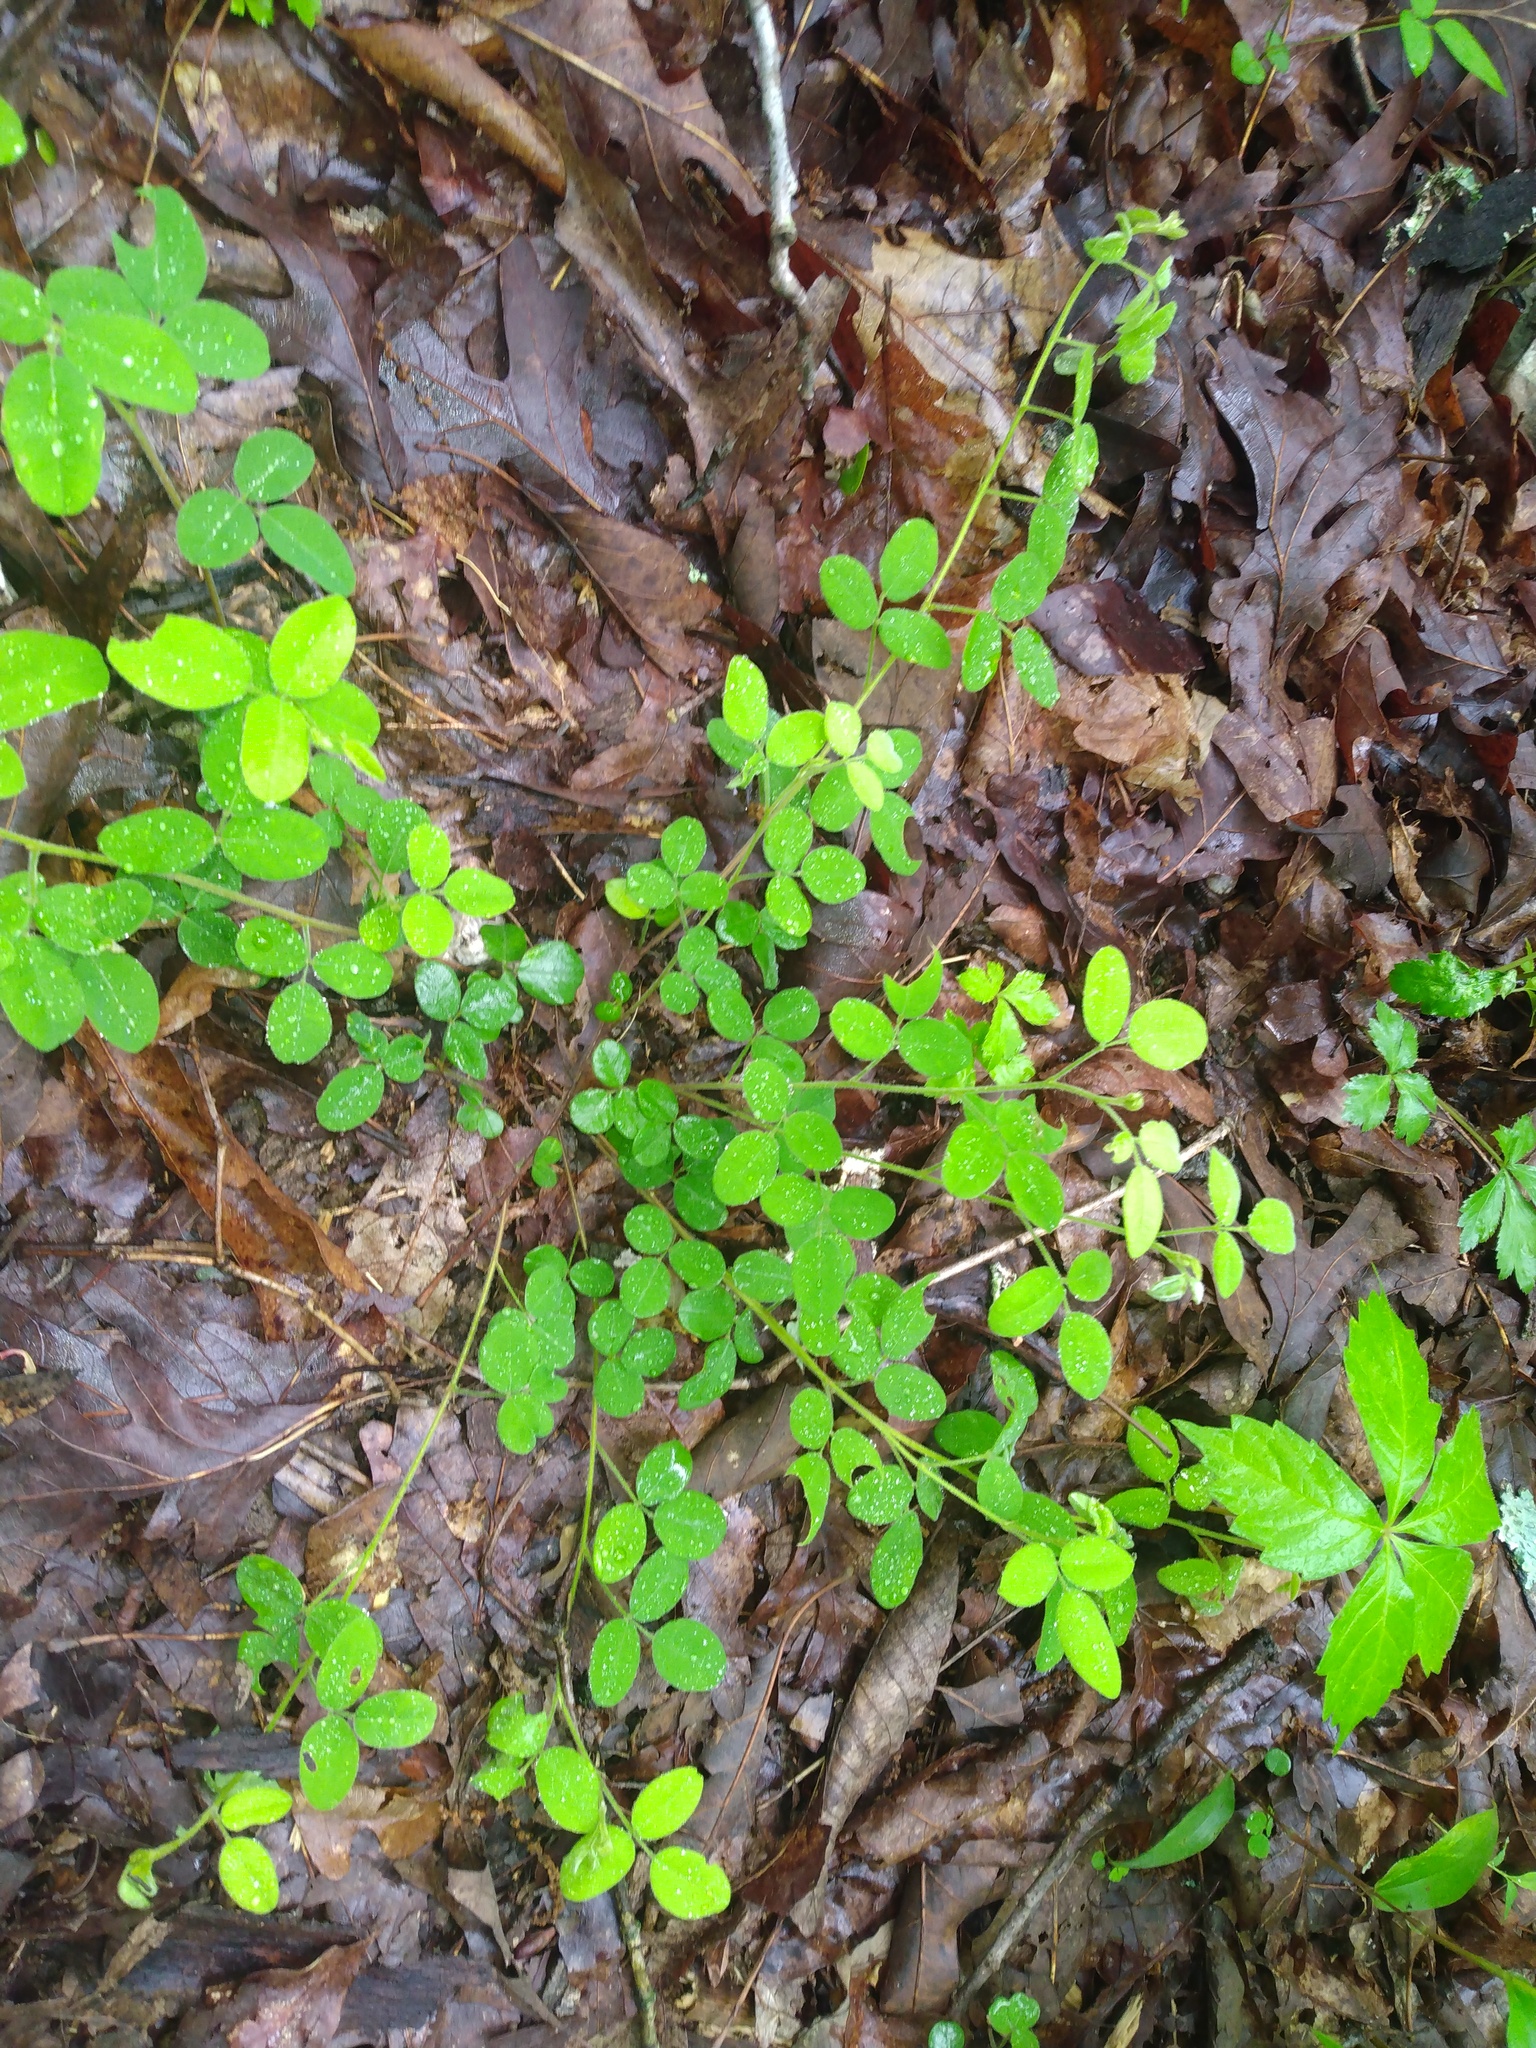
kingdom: Plantae
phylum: Tracheophyta
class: Magnoliopsida
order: Fabales
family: Fabaceae
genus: Lespedeza
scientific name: Lespedeza procumbens
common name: Downy trailing bush-clover
